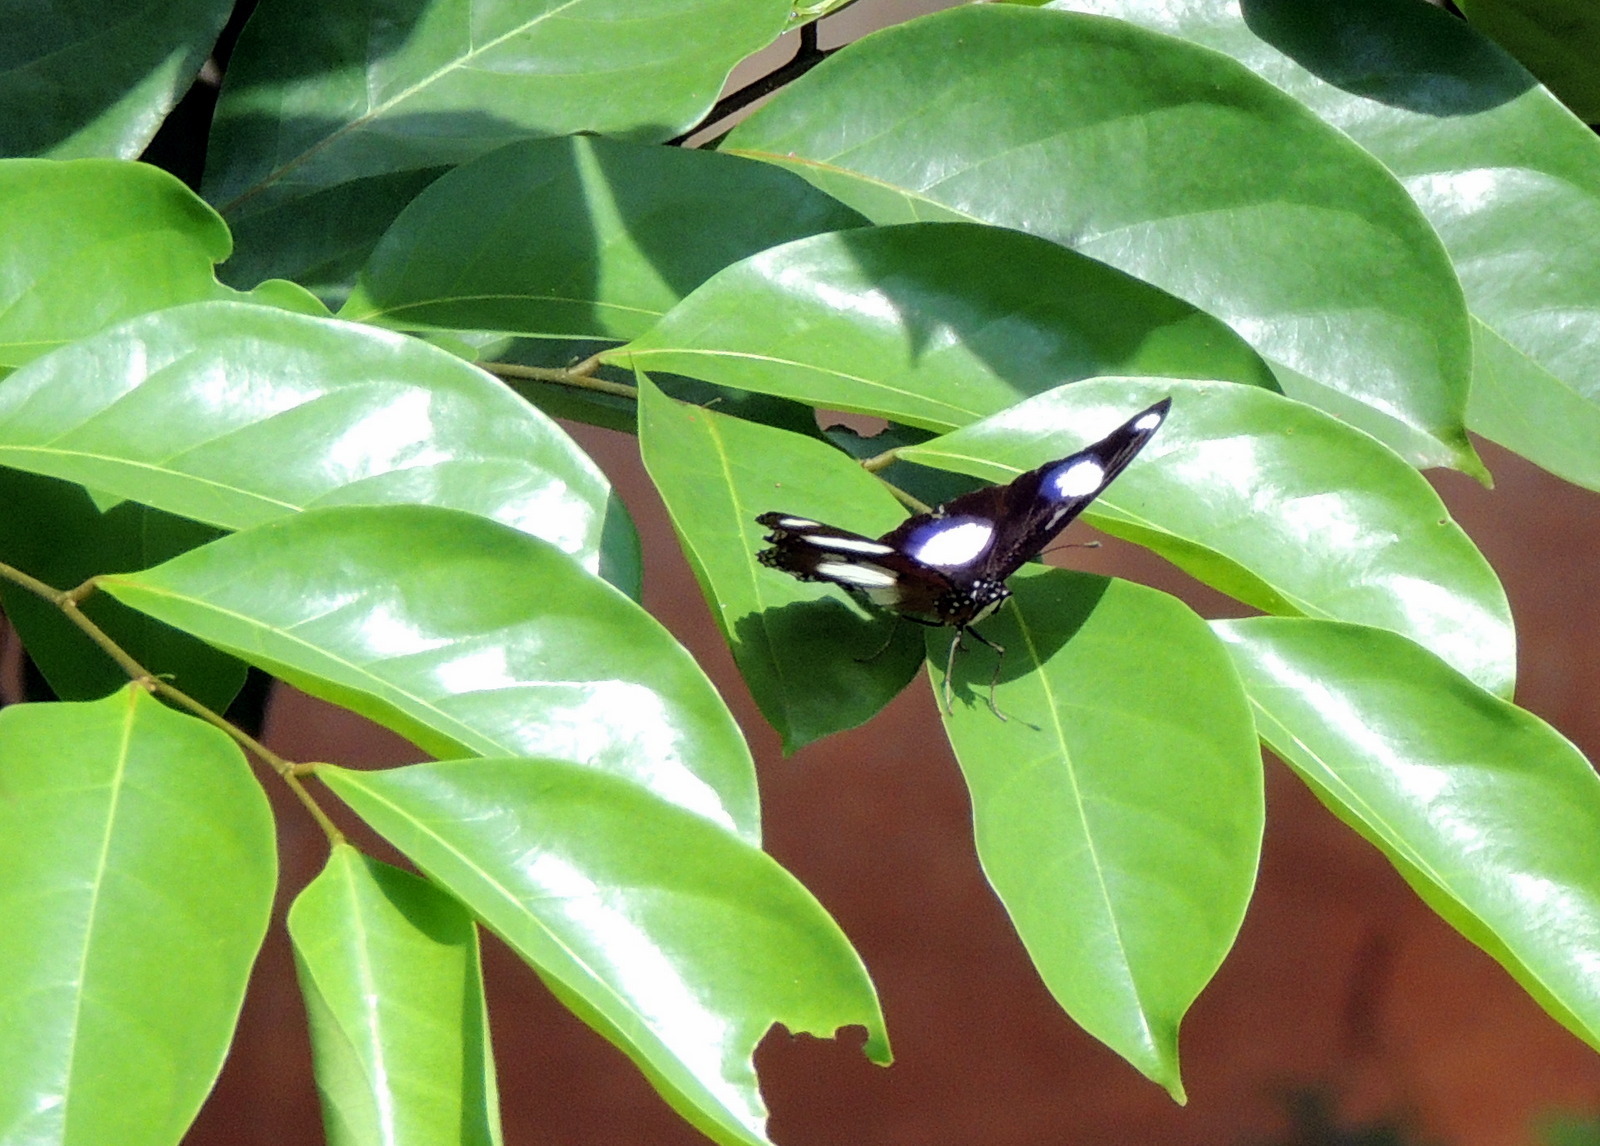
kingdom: Animalia
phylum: Arthropoda
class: Insecta
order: Lepidoptera
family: Nymphalidae
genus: Hypolimnas
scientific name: Hypolimnas misippus
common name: False plain tiger
